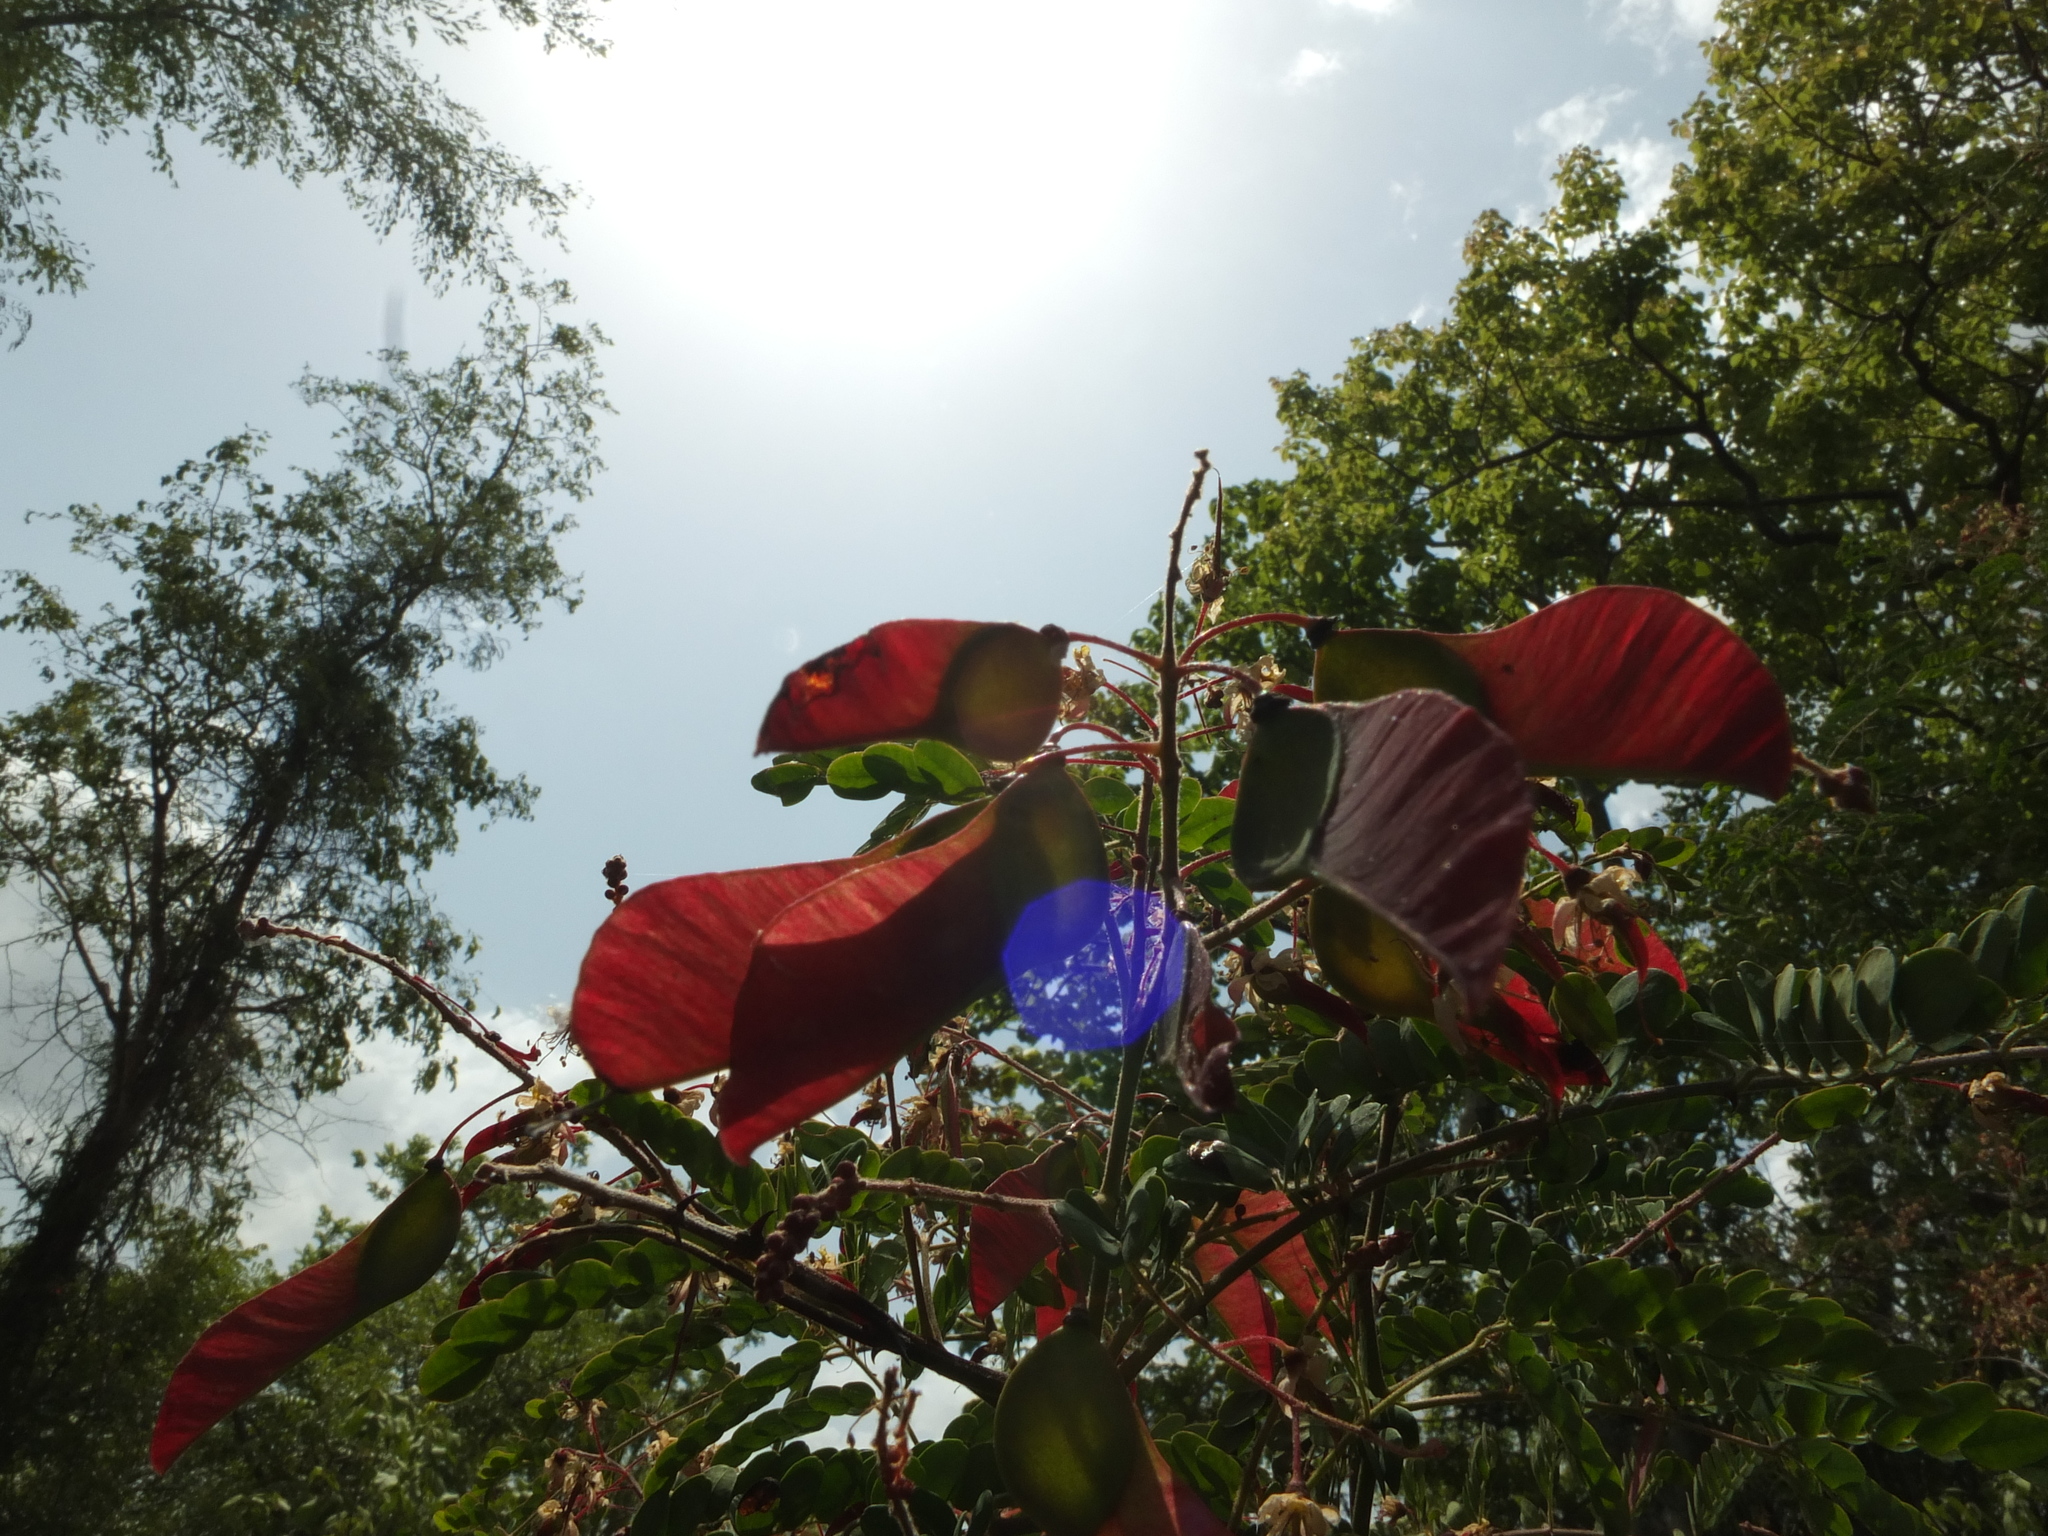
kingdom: Plantae
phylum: Tracheophyta
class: Magnoliopsida
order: Fabales
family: Fabaceae
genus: Pterolobium
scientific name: Pterolobium hexapetalum
